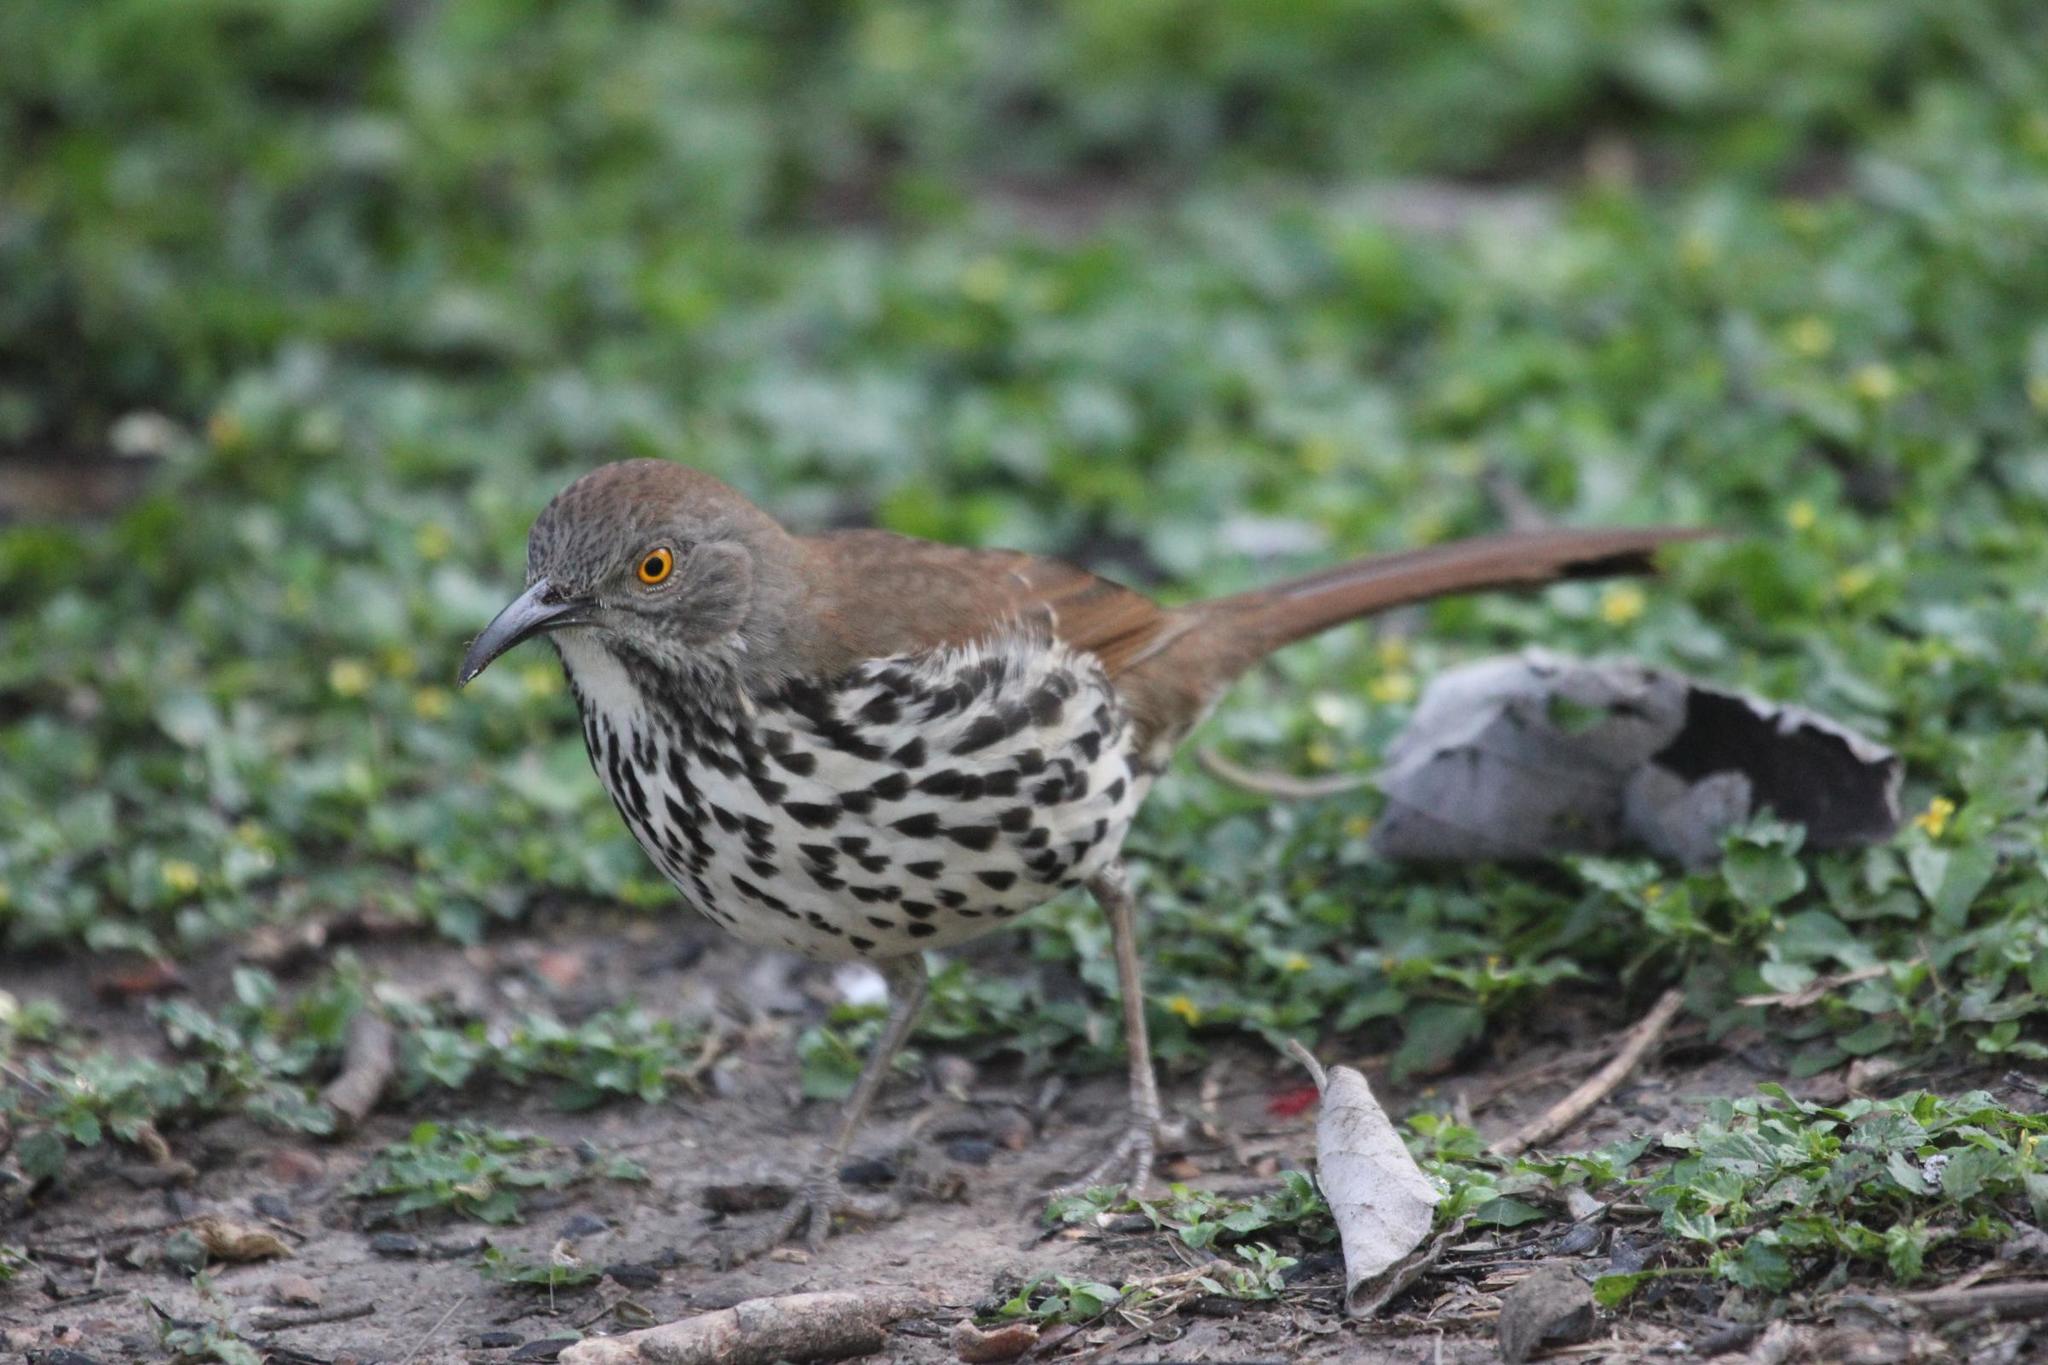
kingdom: Animalia
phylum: Chordata
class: Aves
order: Passeriformes
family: Mimidae
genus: Toxostoma
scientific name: Toxostoma longirostre
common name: Long-billed thrasher
